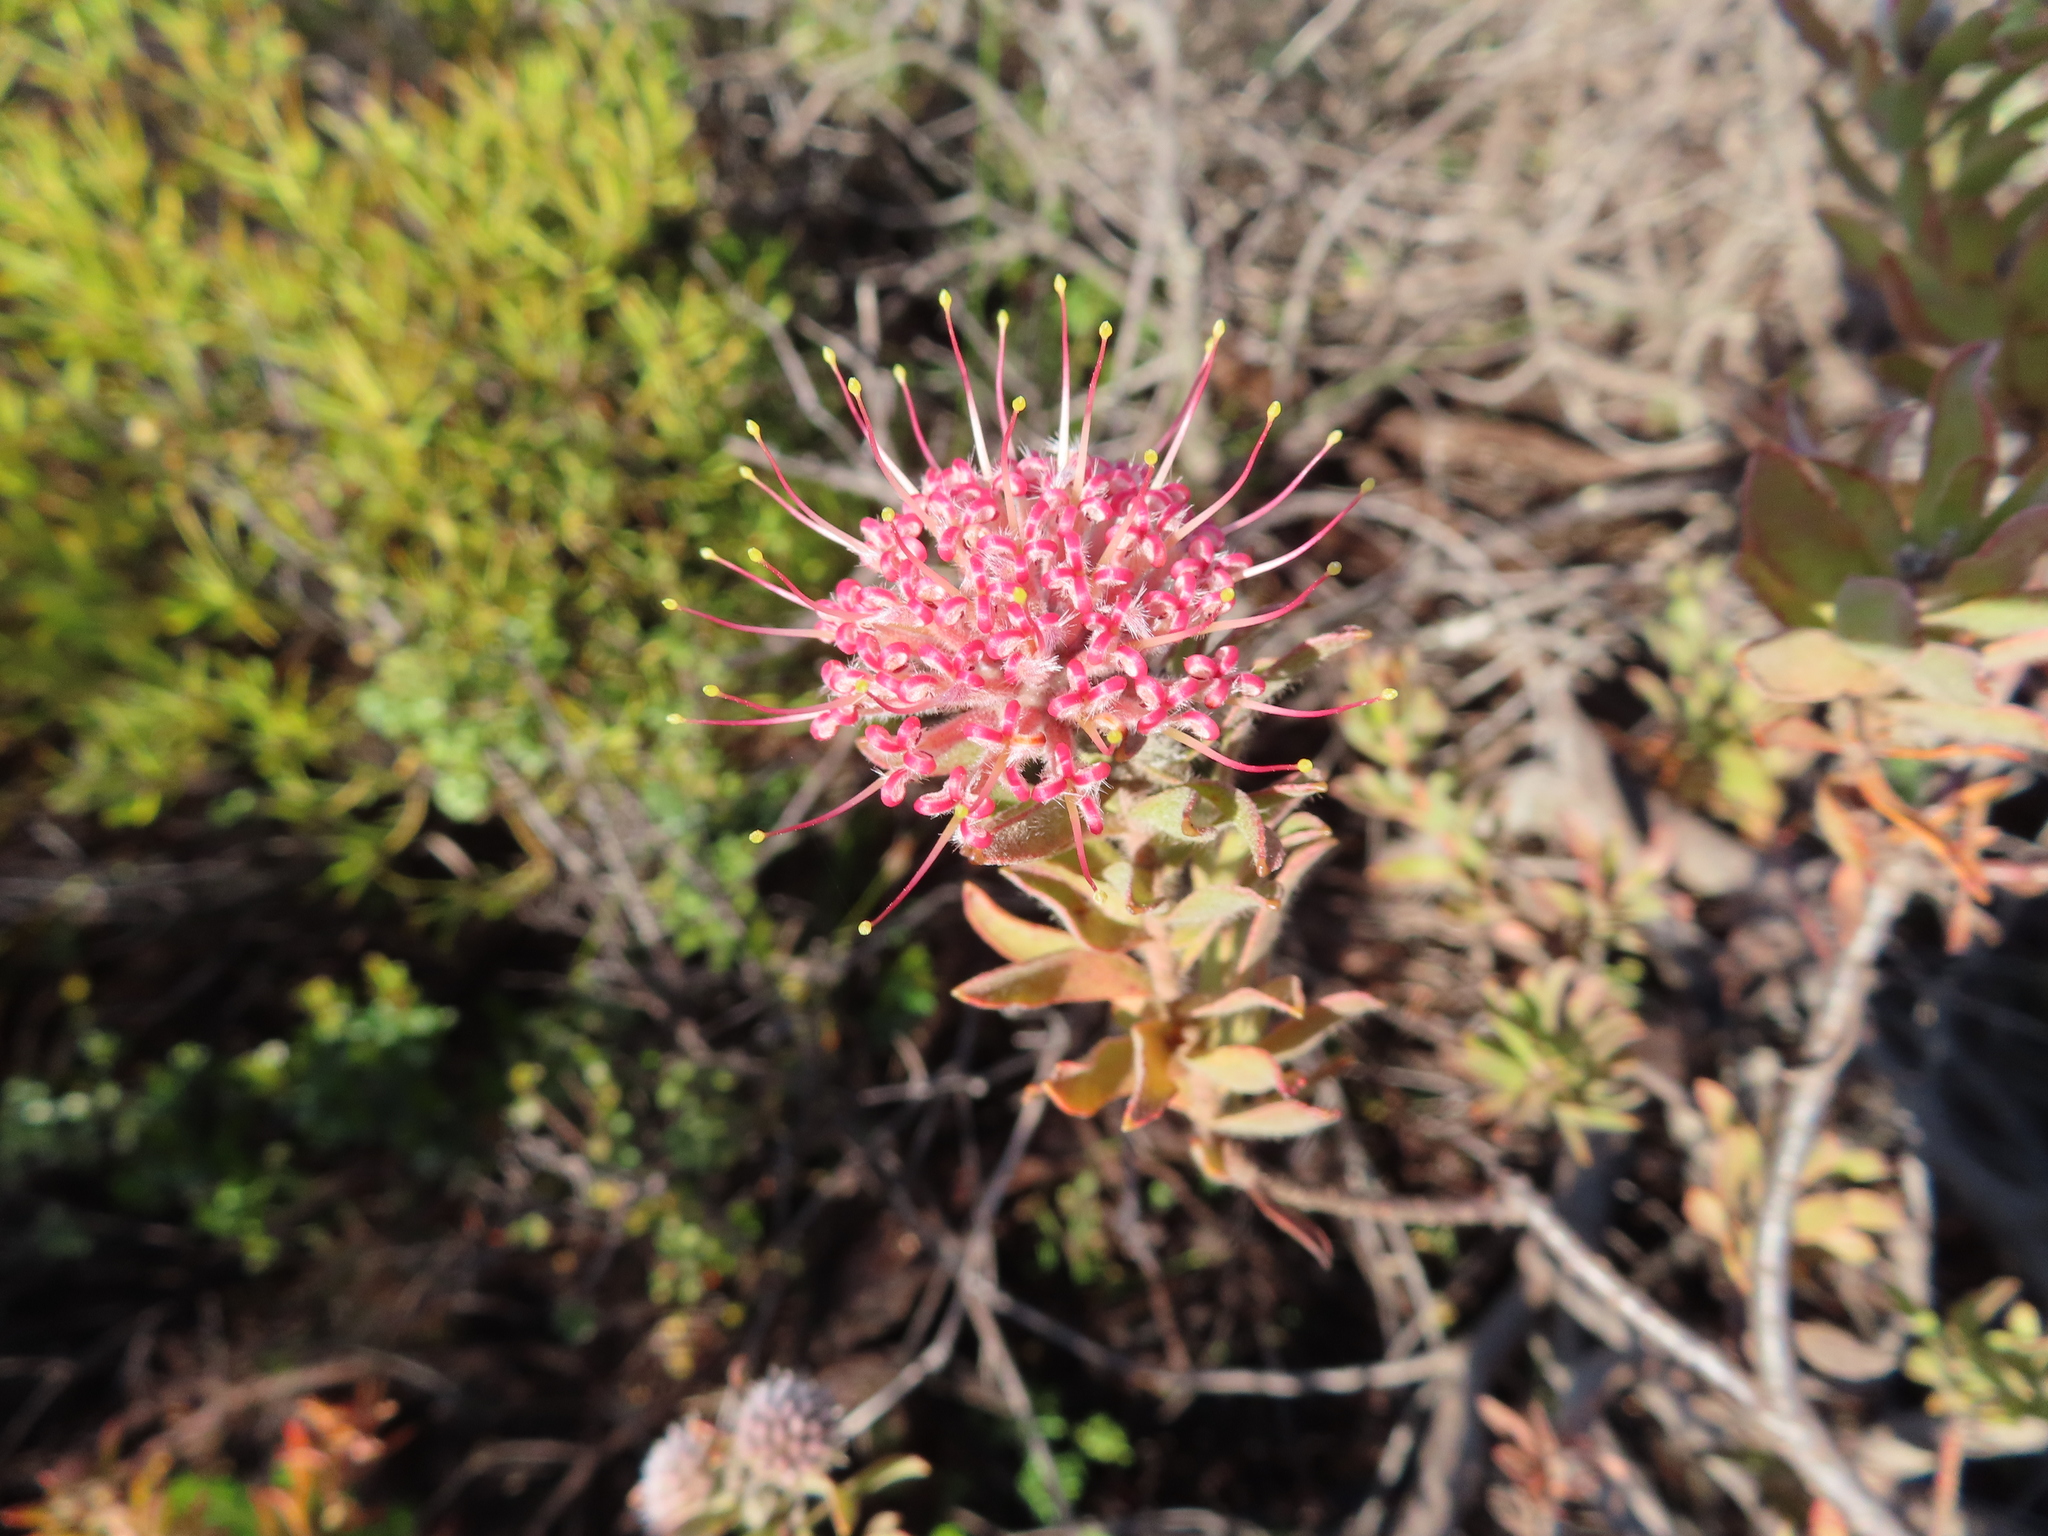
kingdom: Plantae
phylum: Tracheophyta
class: Magnoliopsida
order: Proteales
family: Proteaceae
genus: Leucospermum
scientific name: Leucospermum calligerum
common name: Arid pincushion
